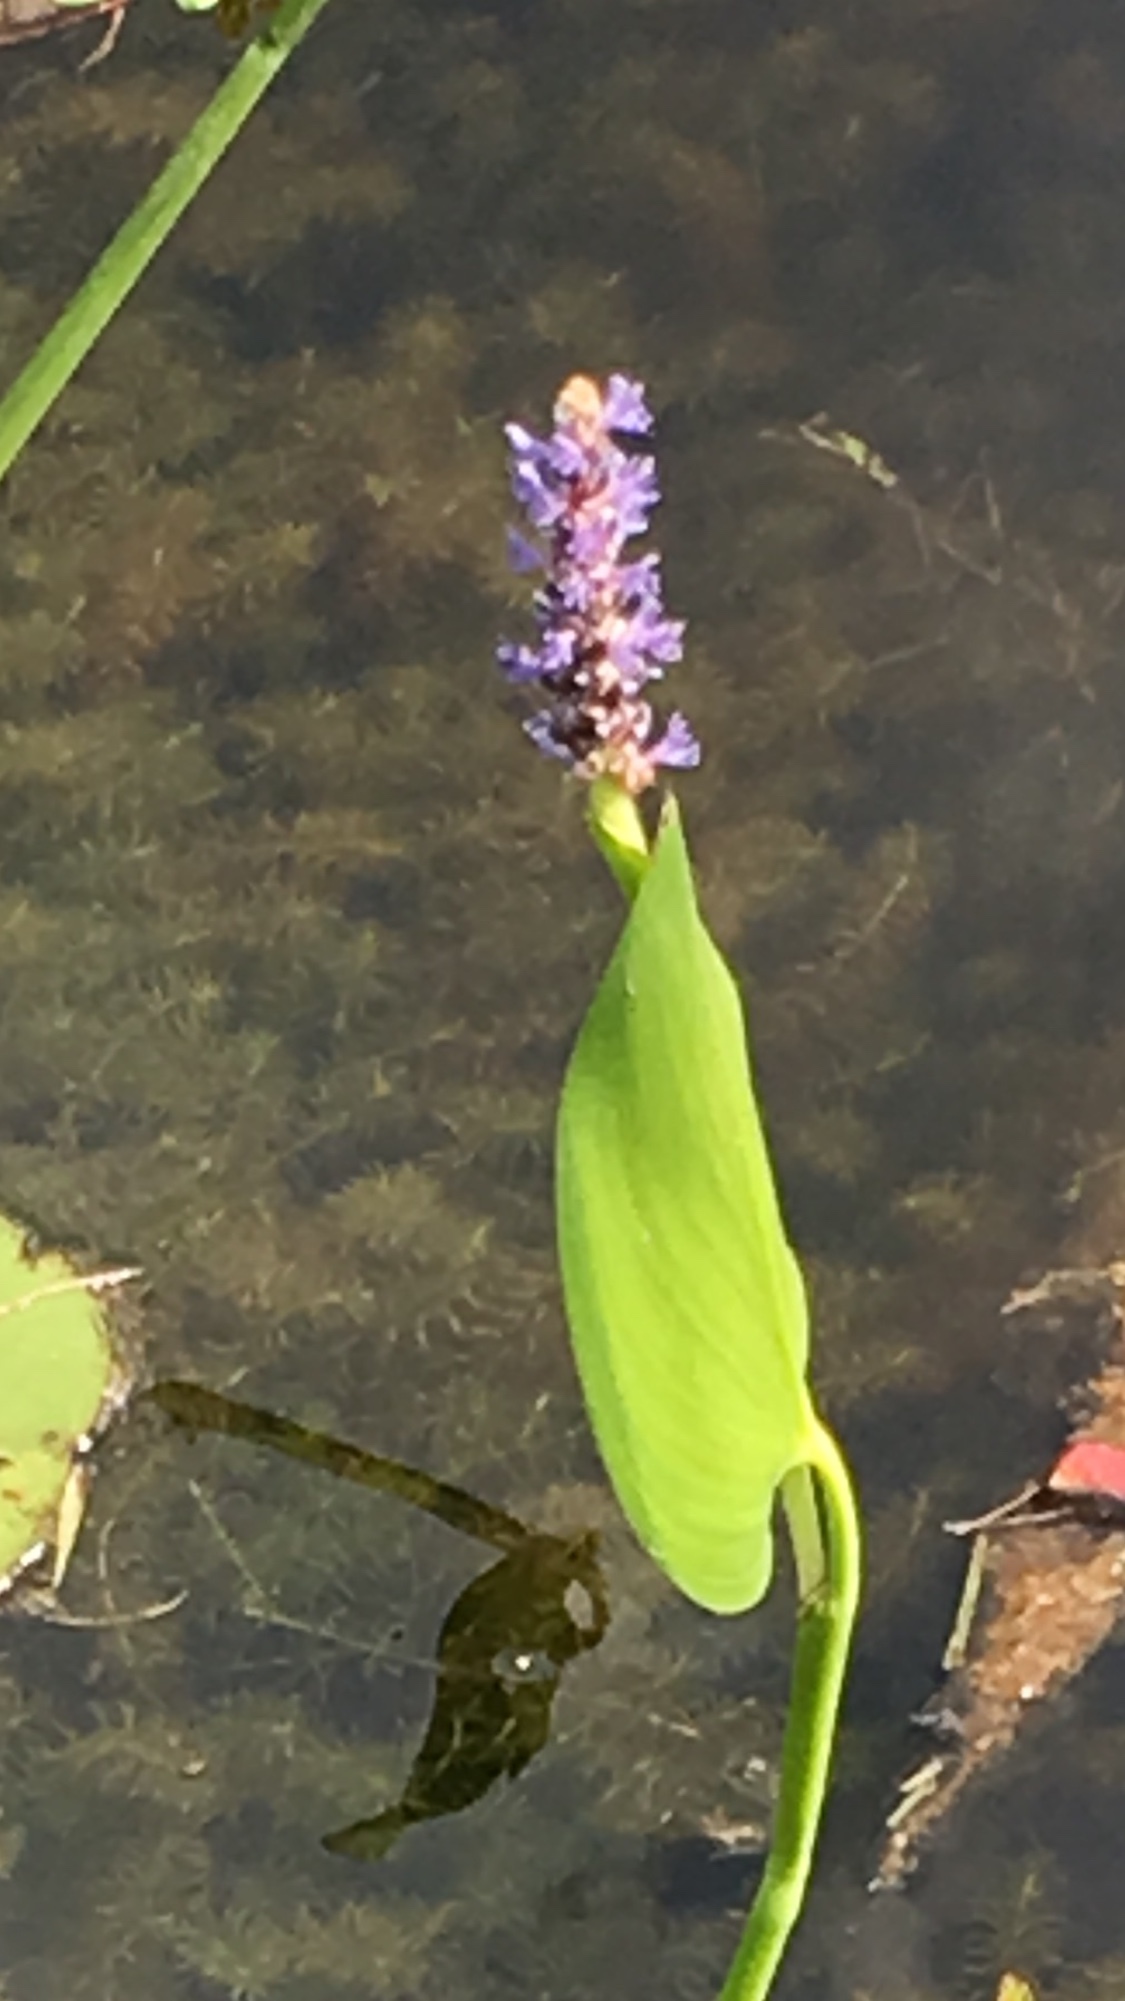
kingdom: Plantae
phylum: Tracheophyta
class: Liliopsida
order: Commelinales
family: Pontederiaceae
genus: Pontederia
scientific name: Pontederia cordata
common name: Pickerelweed
